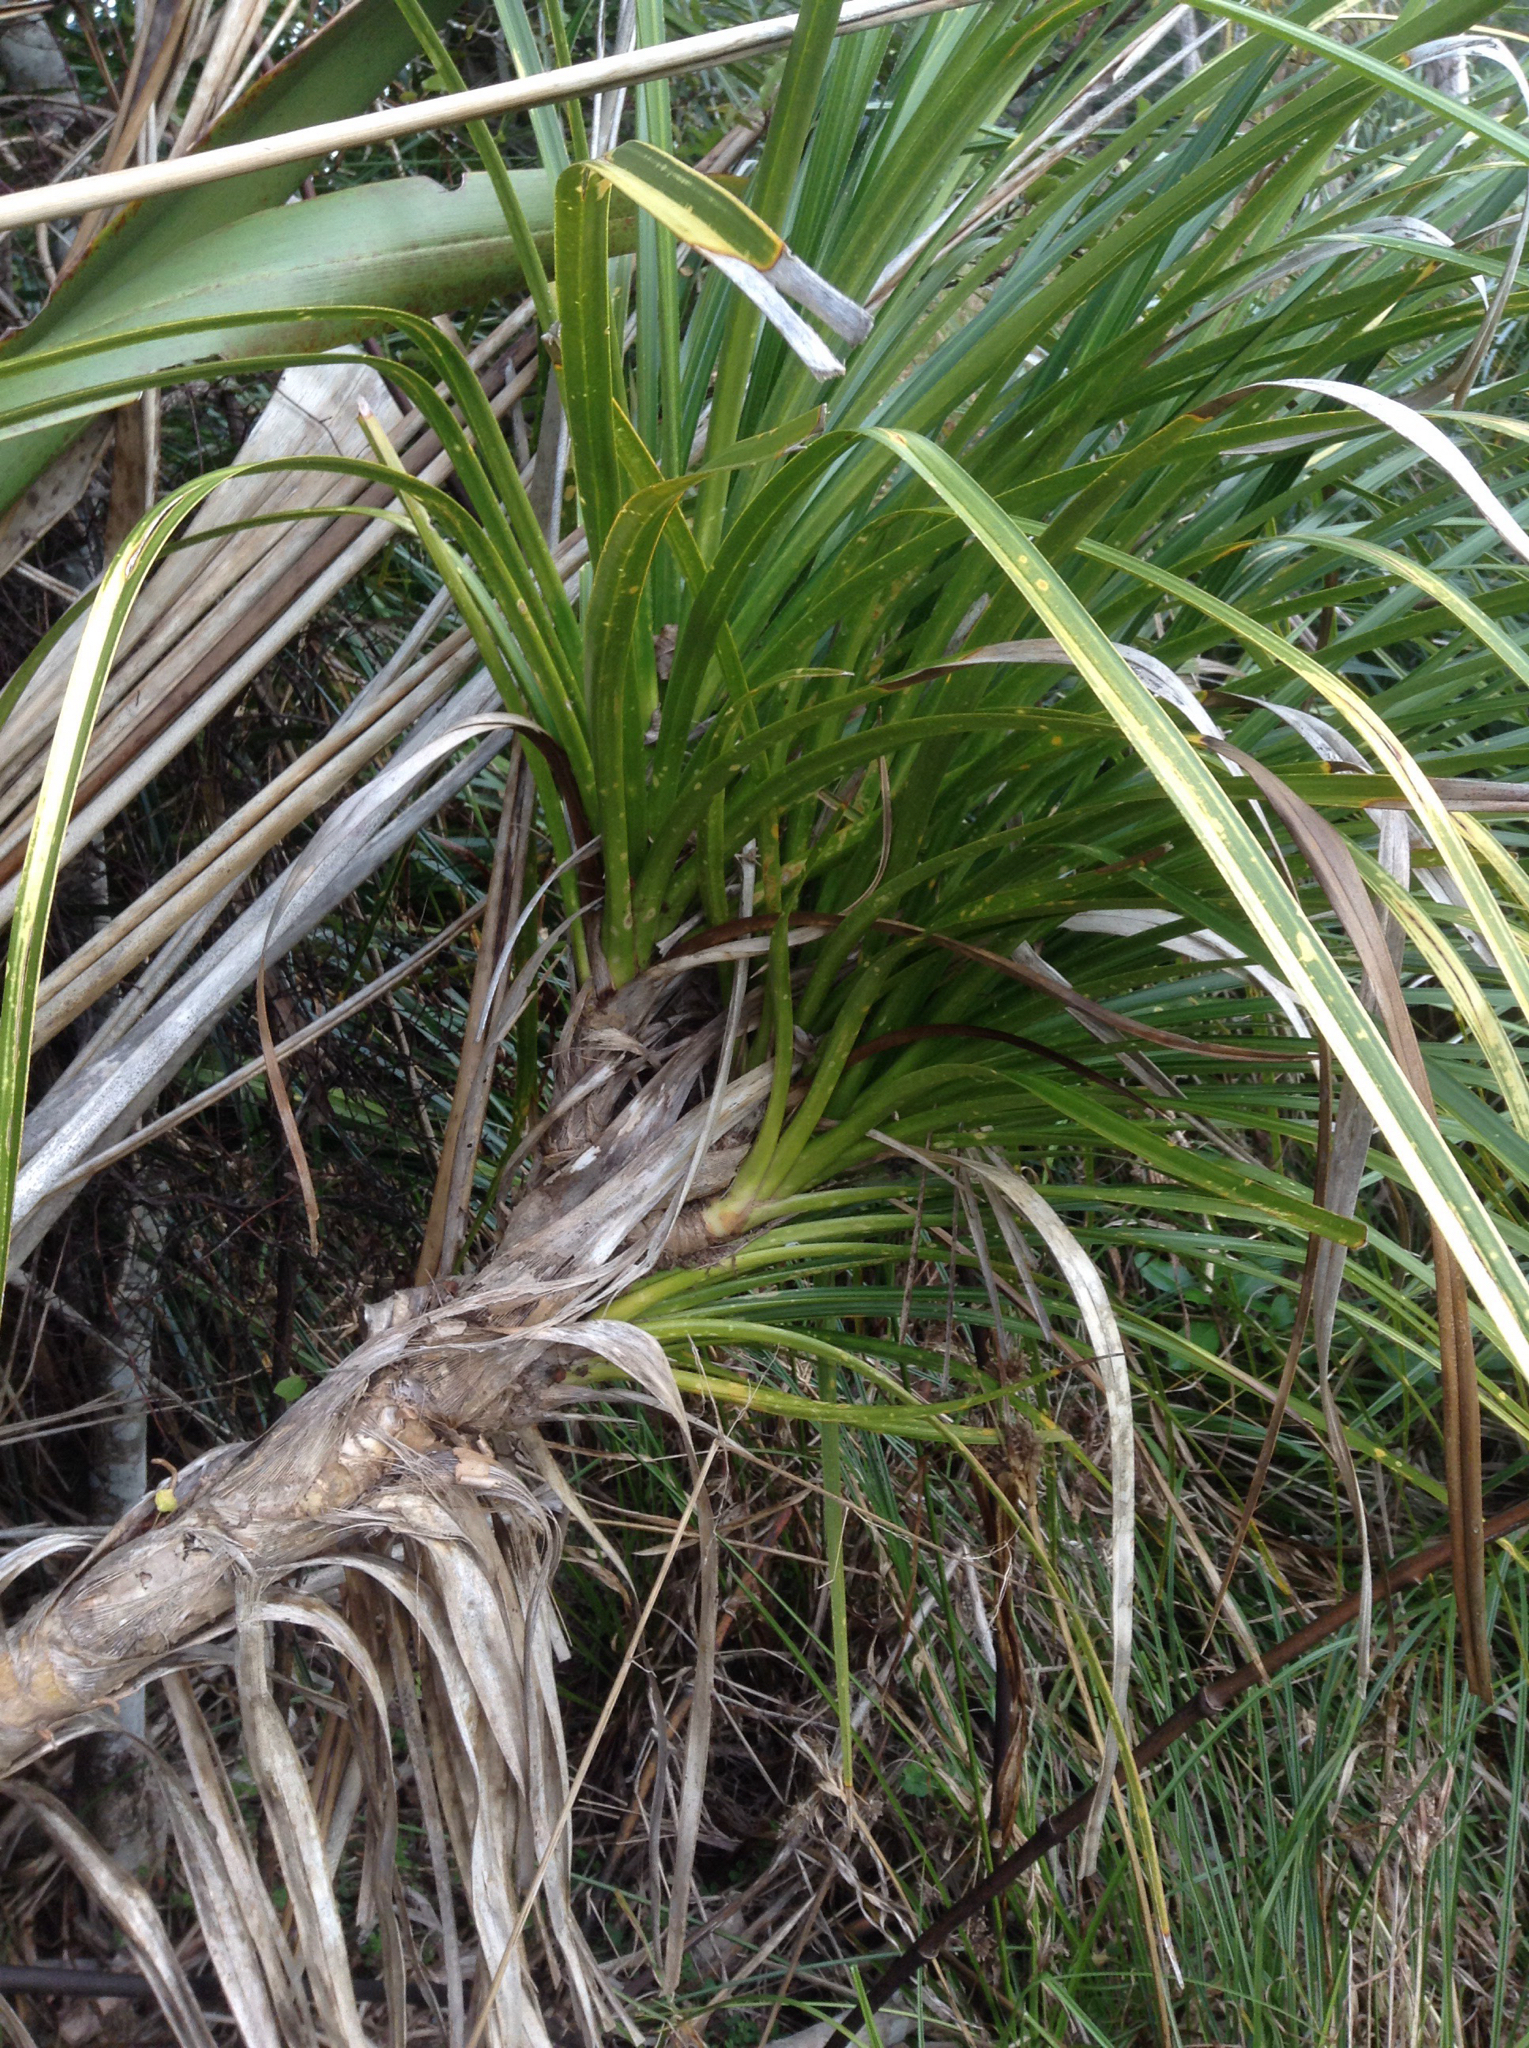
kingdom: Plantae
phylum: Tracheophyta
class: Liliopsida
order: Pandanales
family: Pandanaceae
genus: Freycinetia
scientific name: Freycinetia banksii
